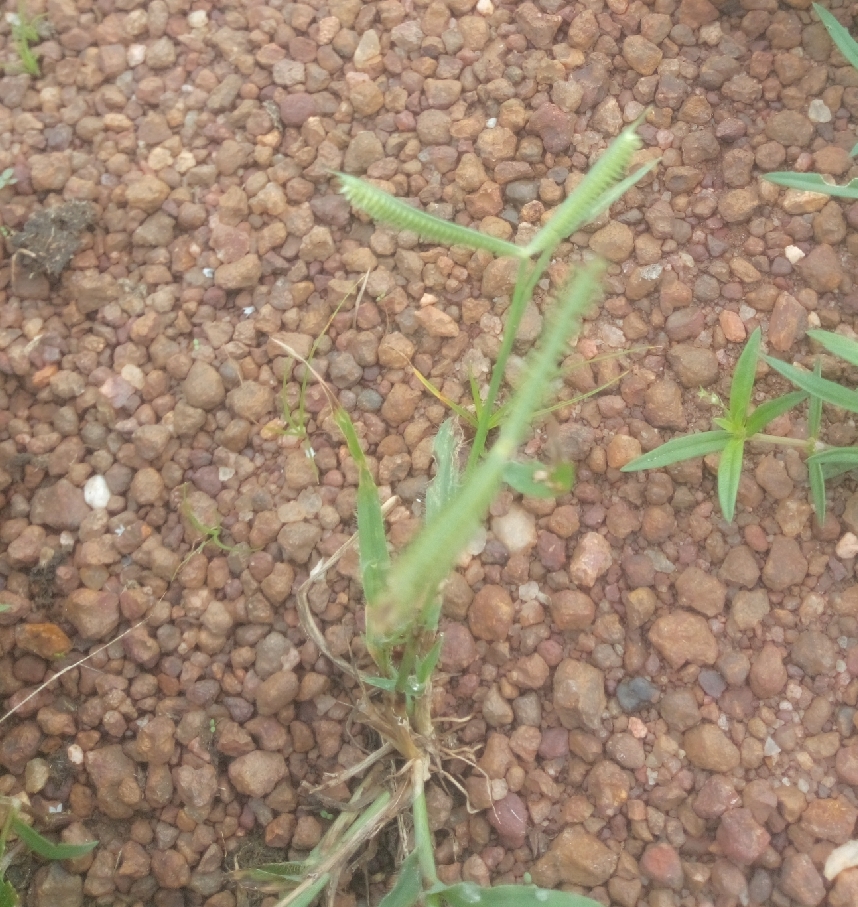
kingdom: Plantae
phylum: Tracheophyta
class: Liliopsida
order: Poales
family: Poaceae
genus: Dactyloctenium
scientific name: Dactyloctenium aegyptium
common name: Egyptian grass
